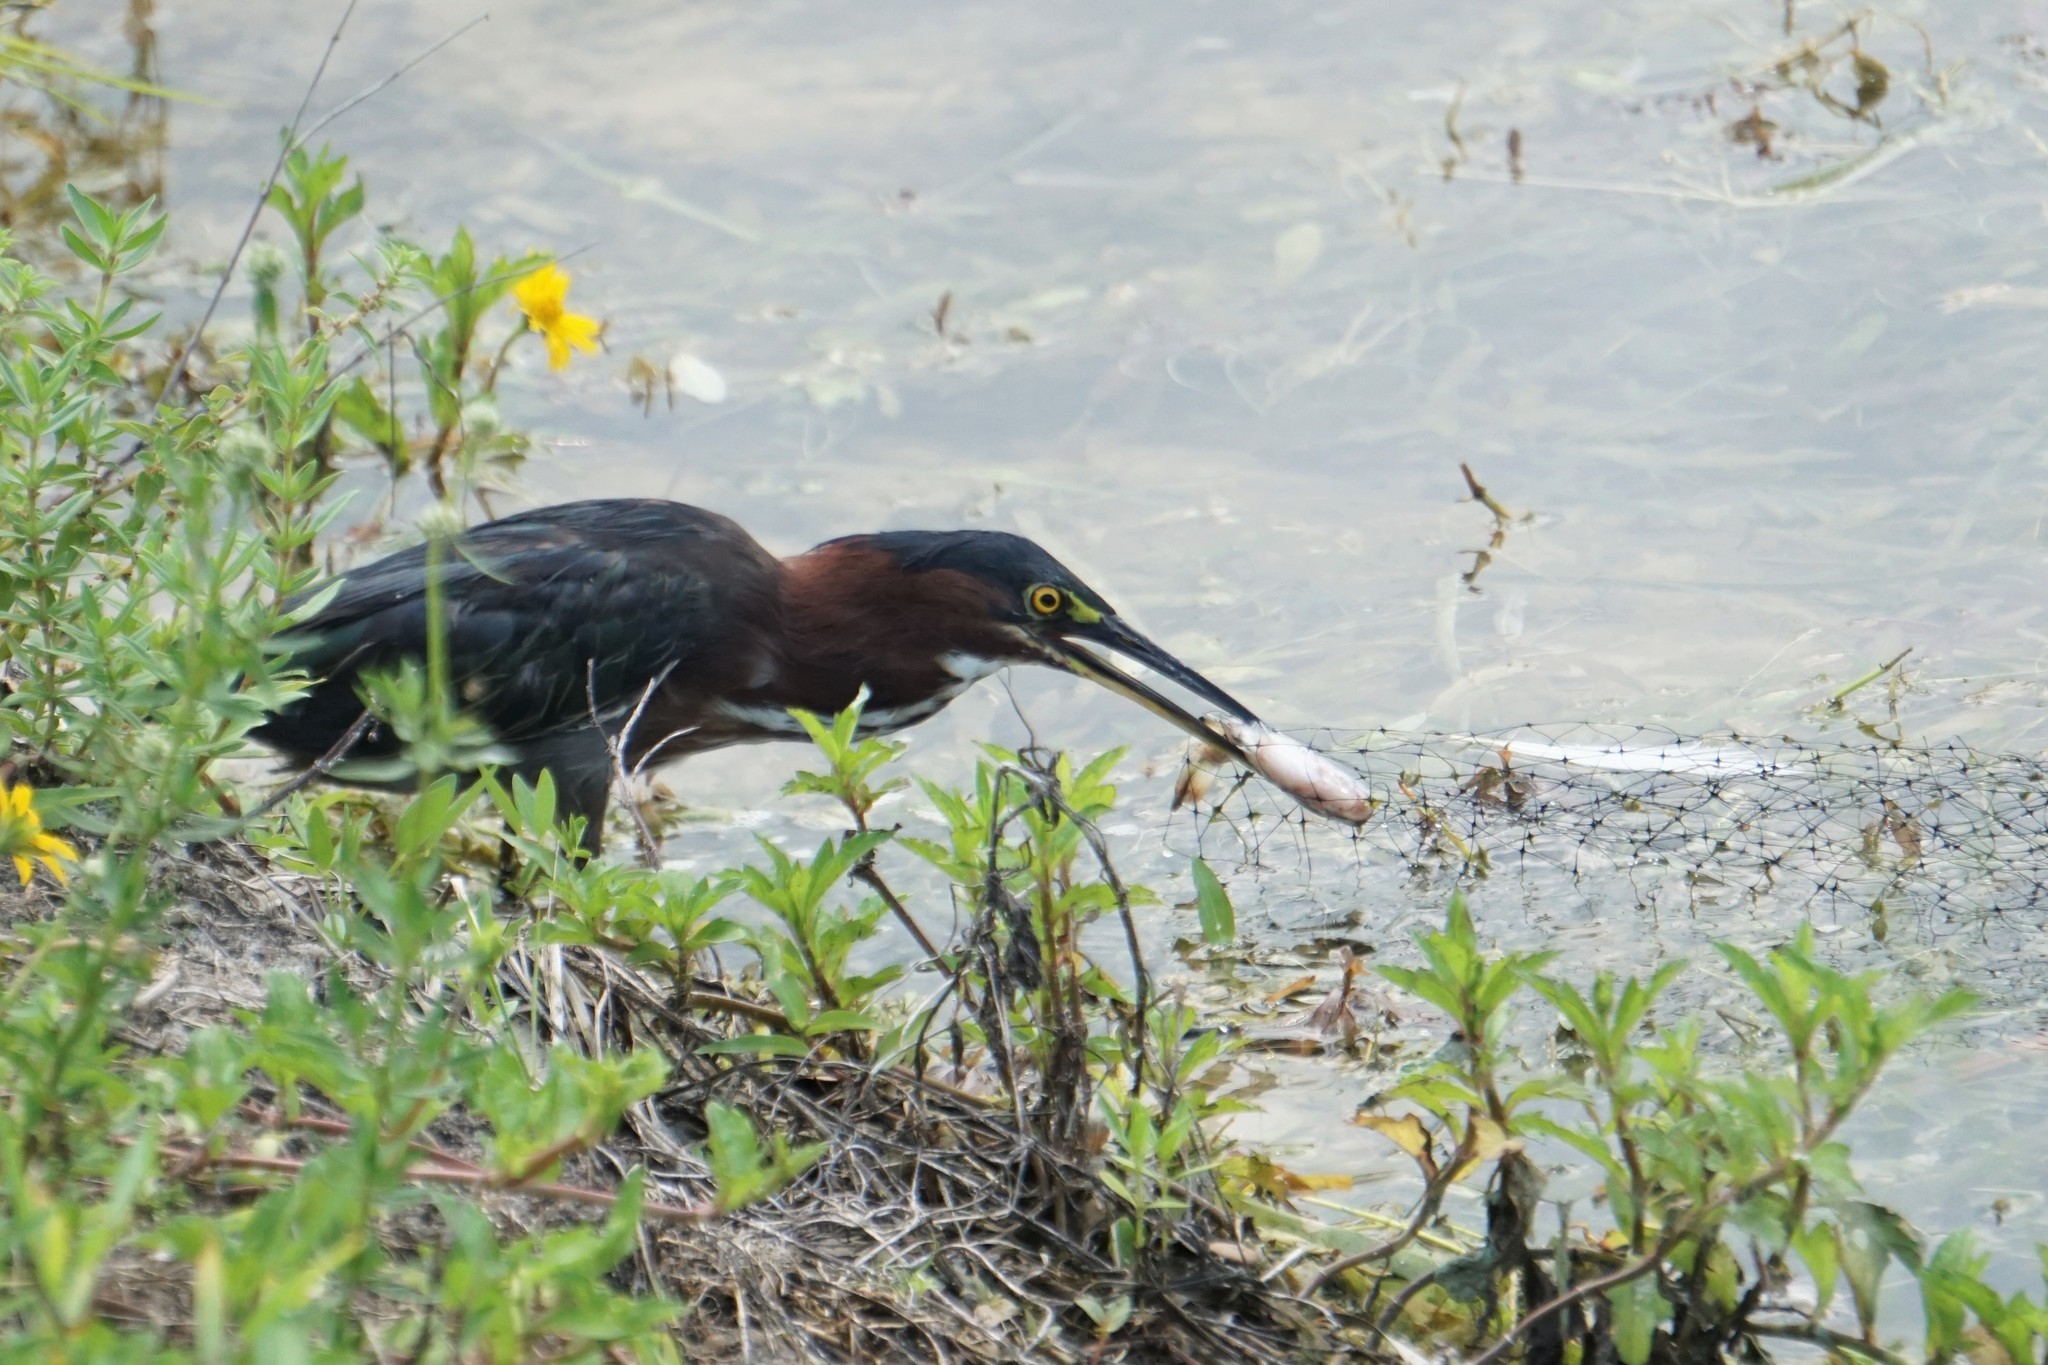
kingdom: Animalia
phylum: Chordata
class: Aves
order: Pelecaniformes
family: Ardeidae
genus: Butorides
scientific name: Butorides virescens
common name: Green heron
